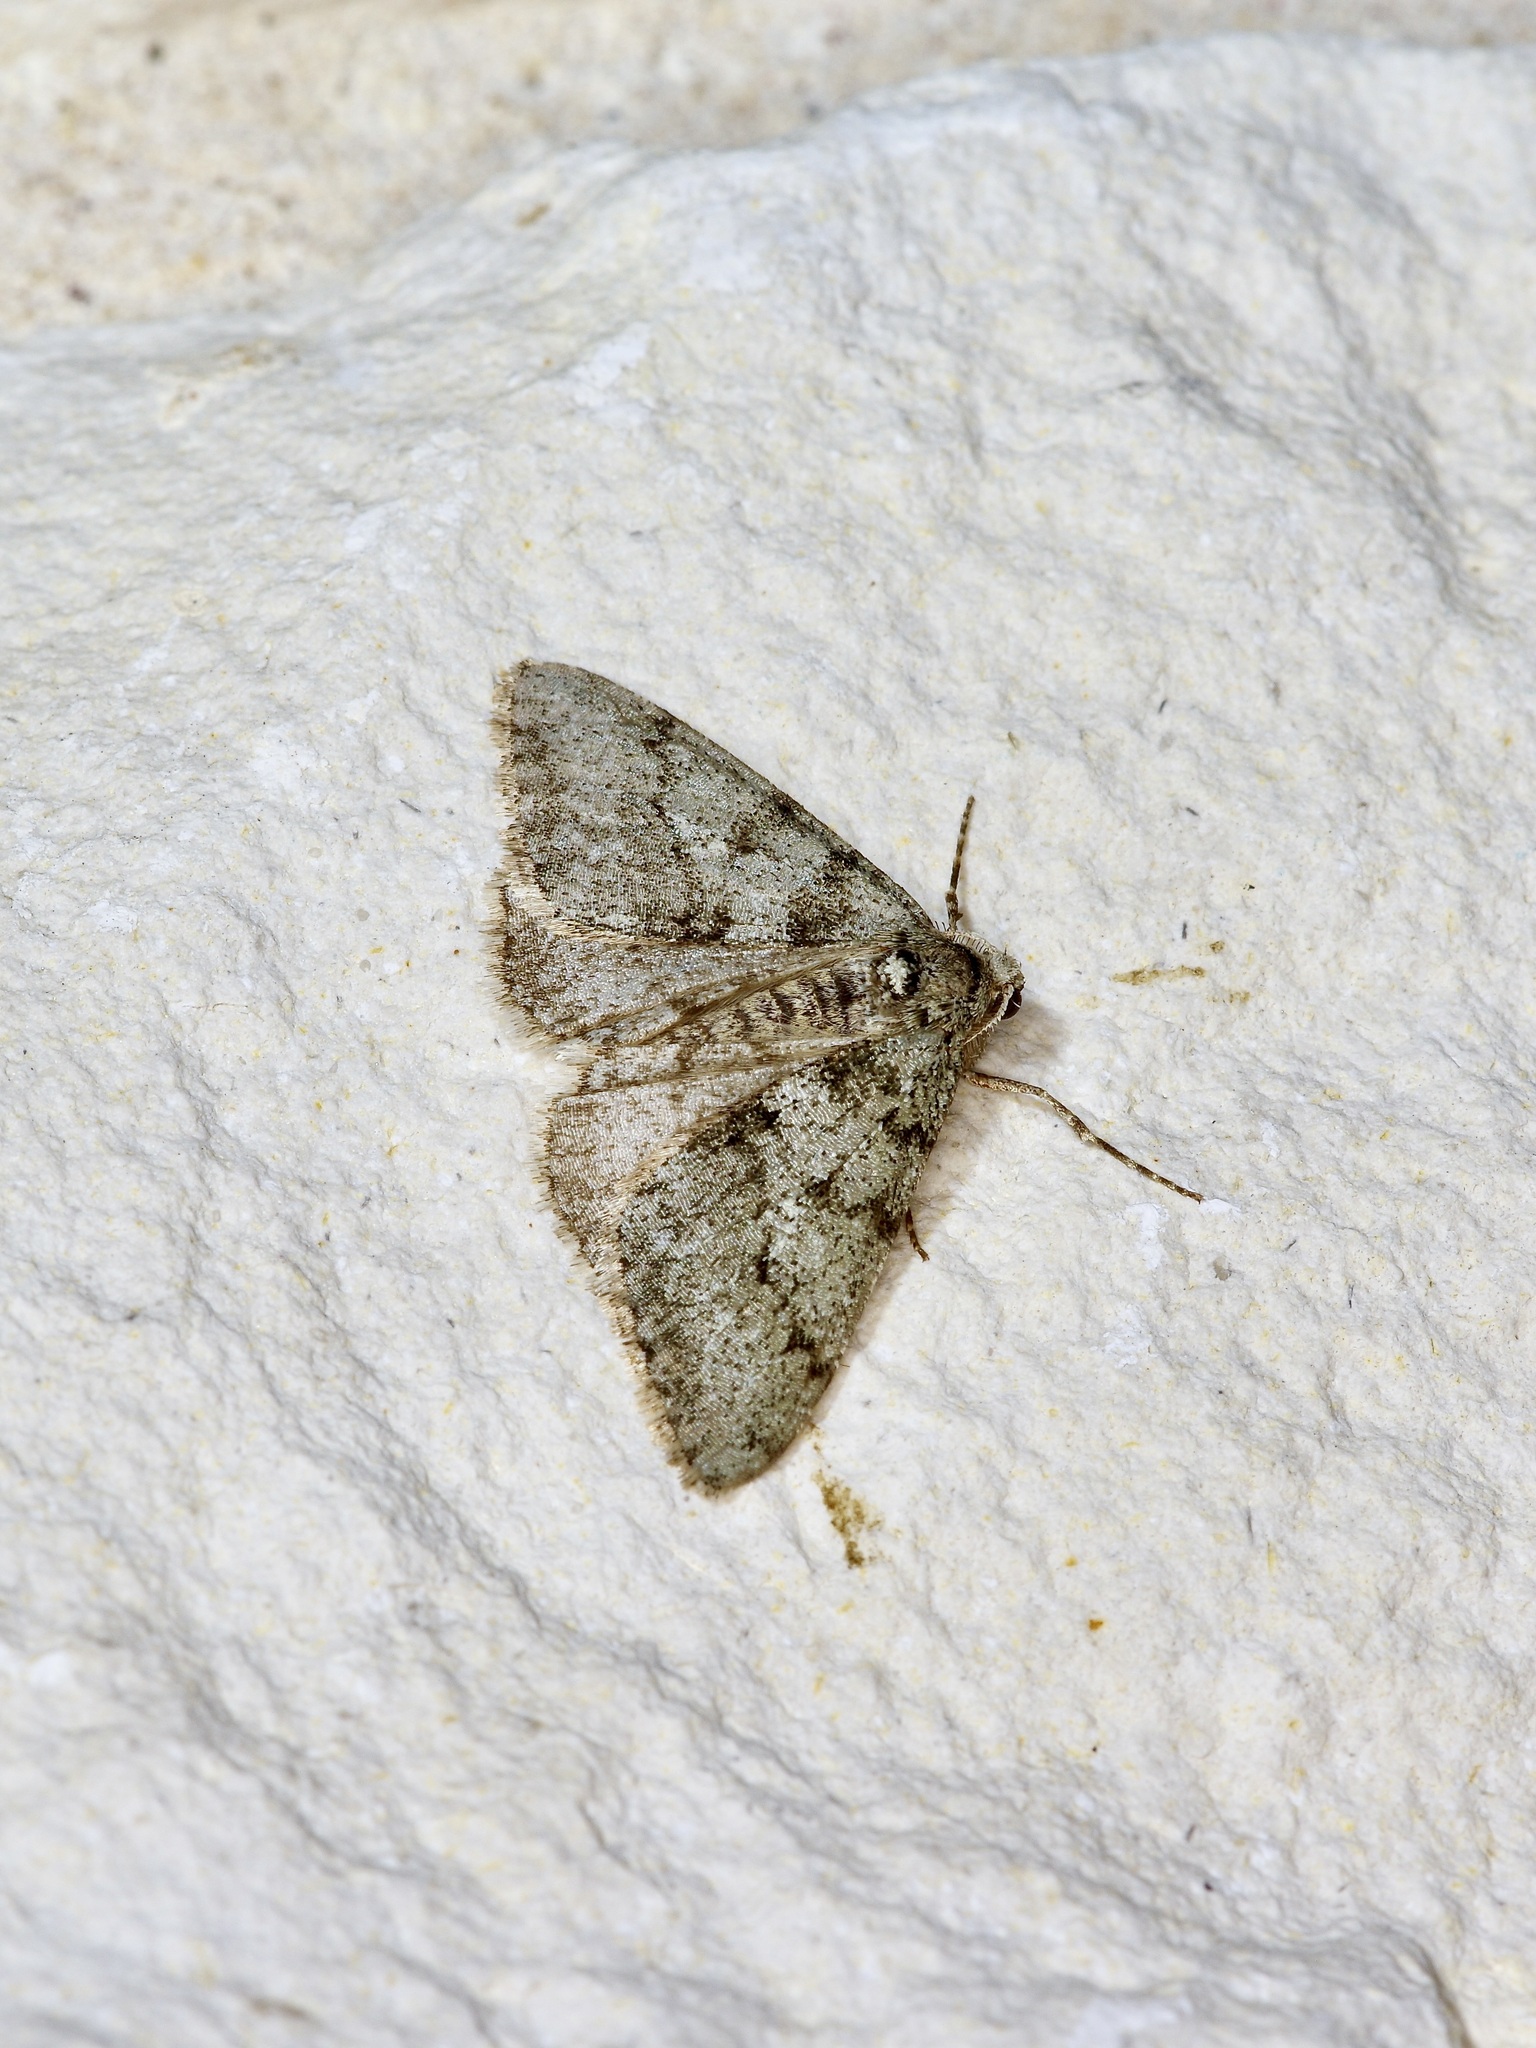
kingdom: Animalia
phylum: Arthropoda
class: Insecta
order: Lepidoptera
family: Geometridae
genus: Phigalia
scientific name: Phigalia strigataria
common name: Small phigalia
